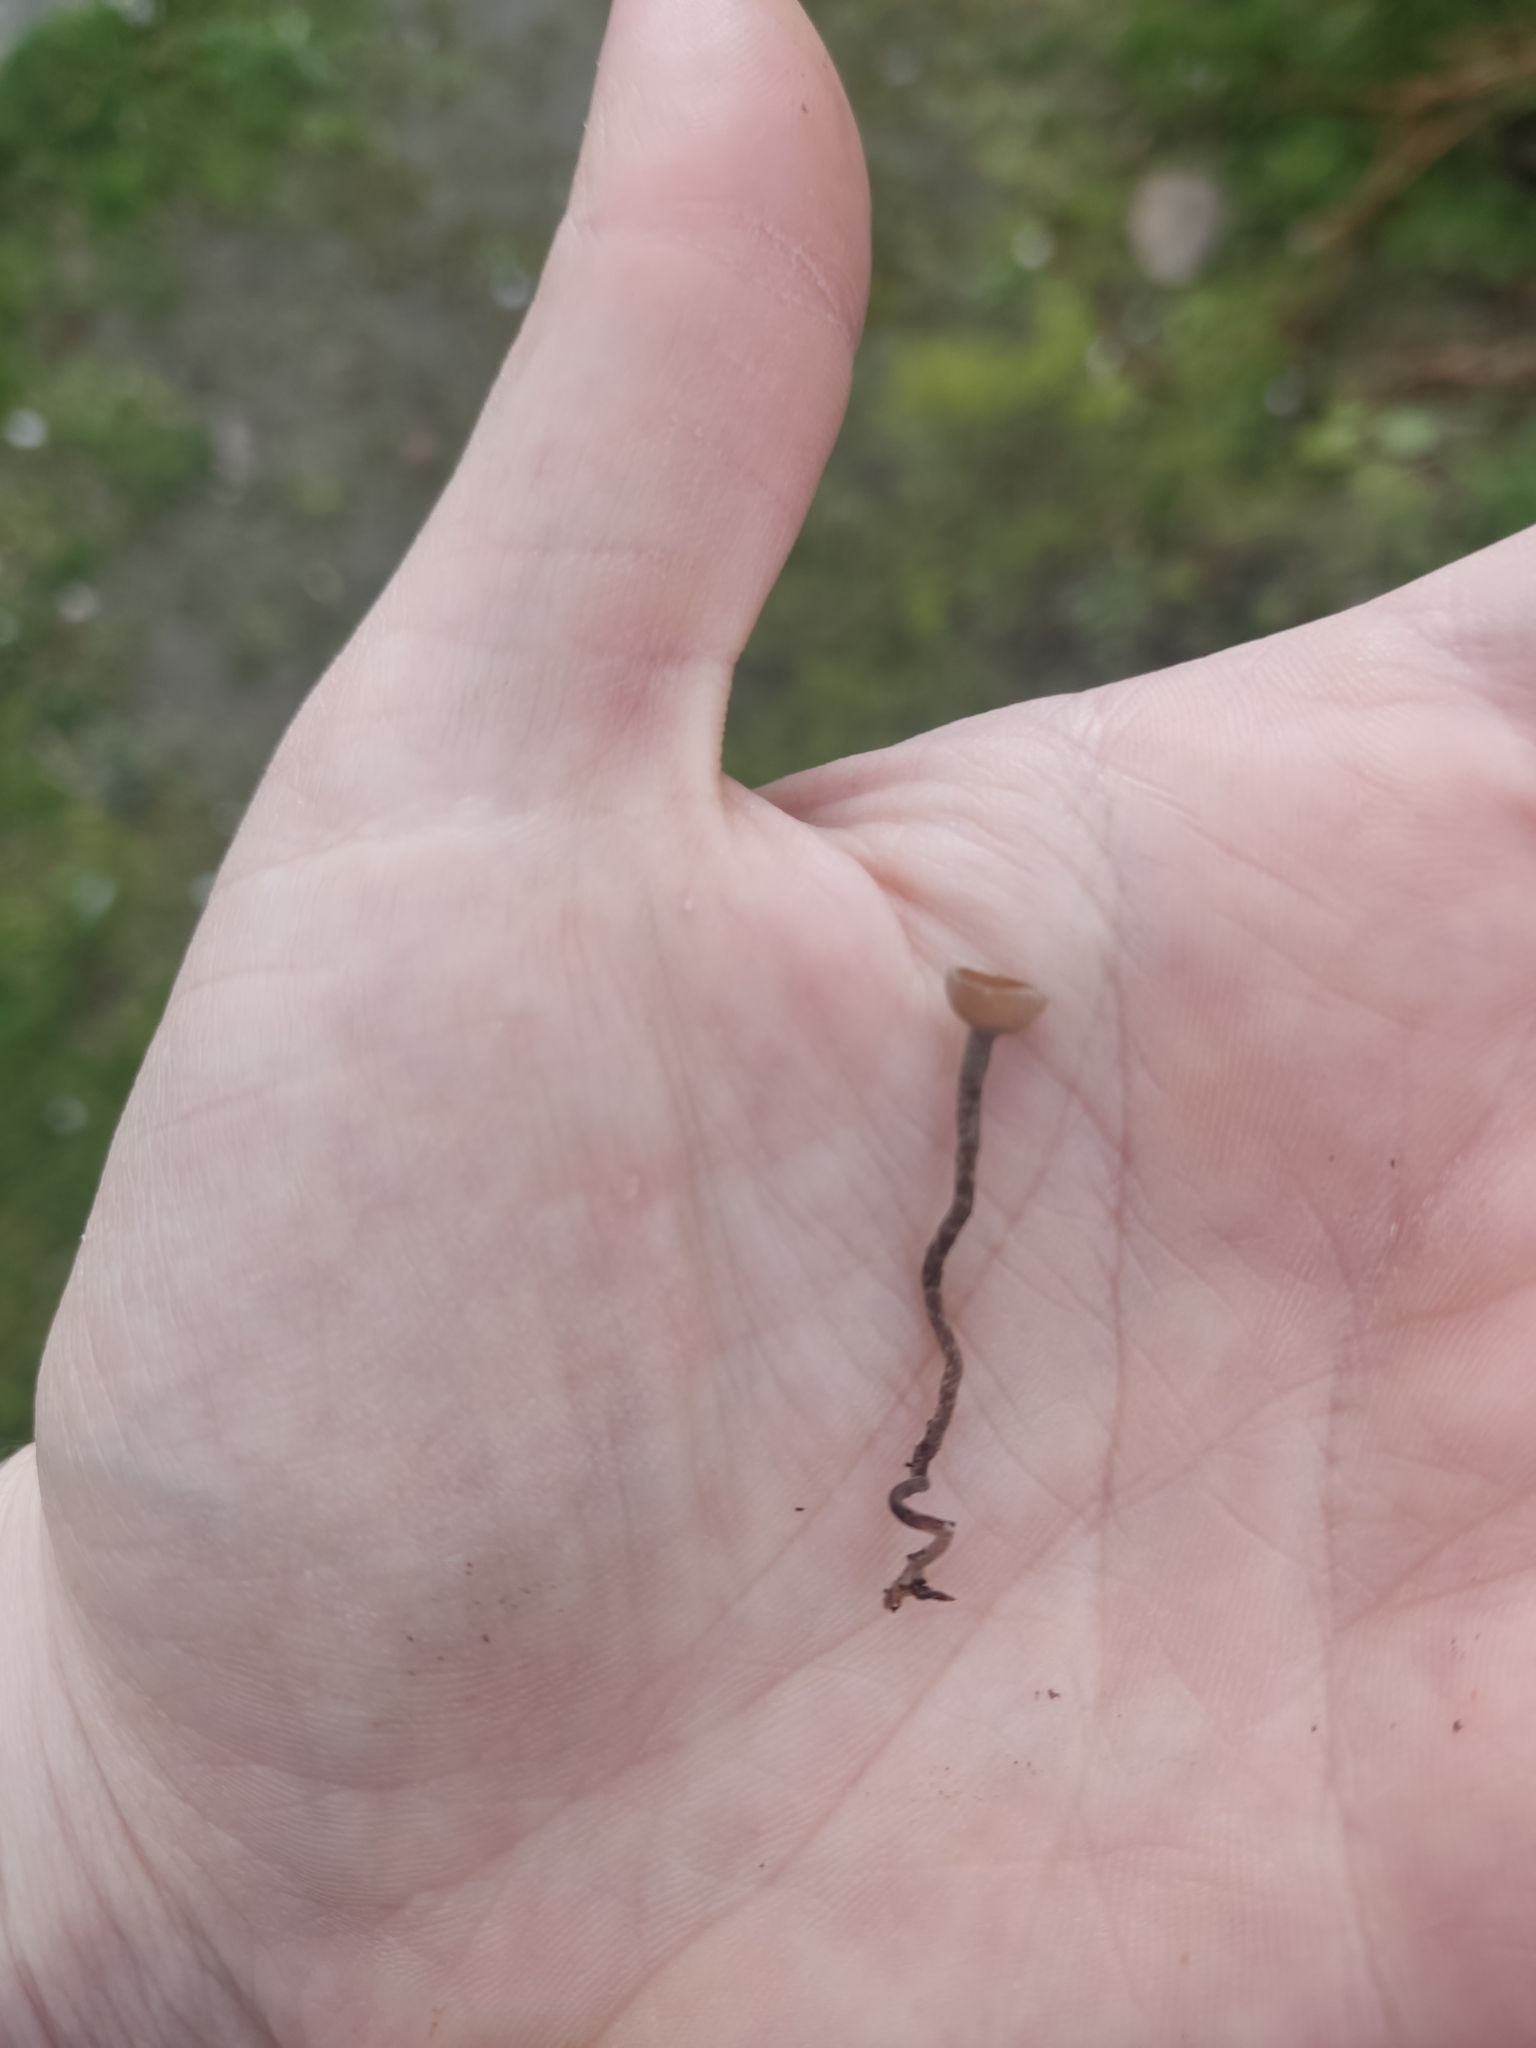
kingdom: Fungi
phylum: Ascomycota
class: Leotiomycetes
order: Helotiales
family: Sclerotiniaceae
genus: Ciborinia
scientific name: Ciborinia camelliae
